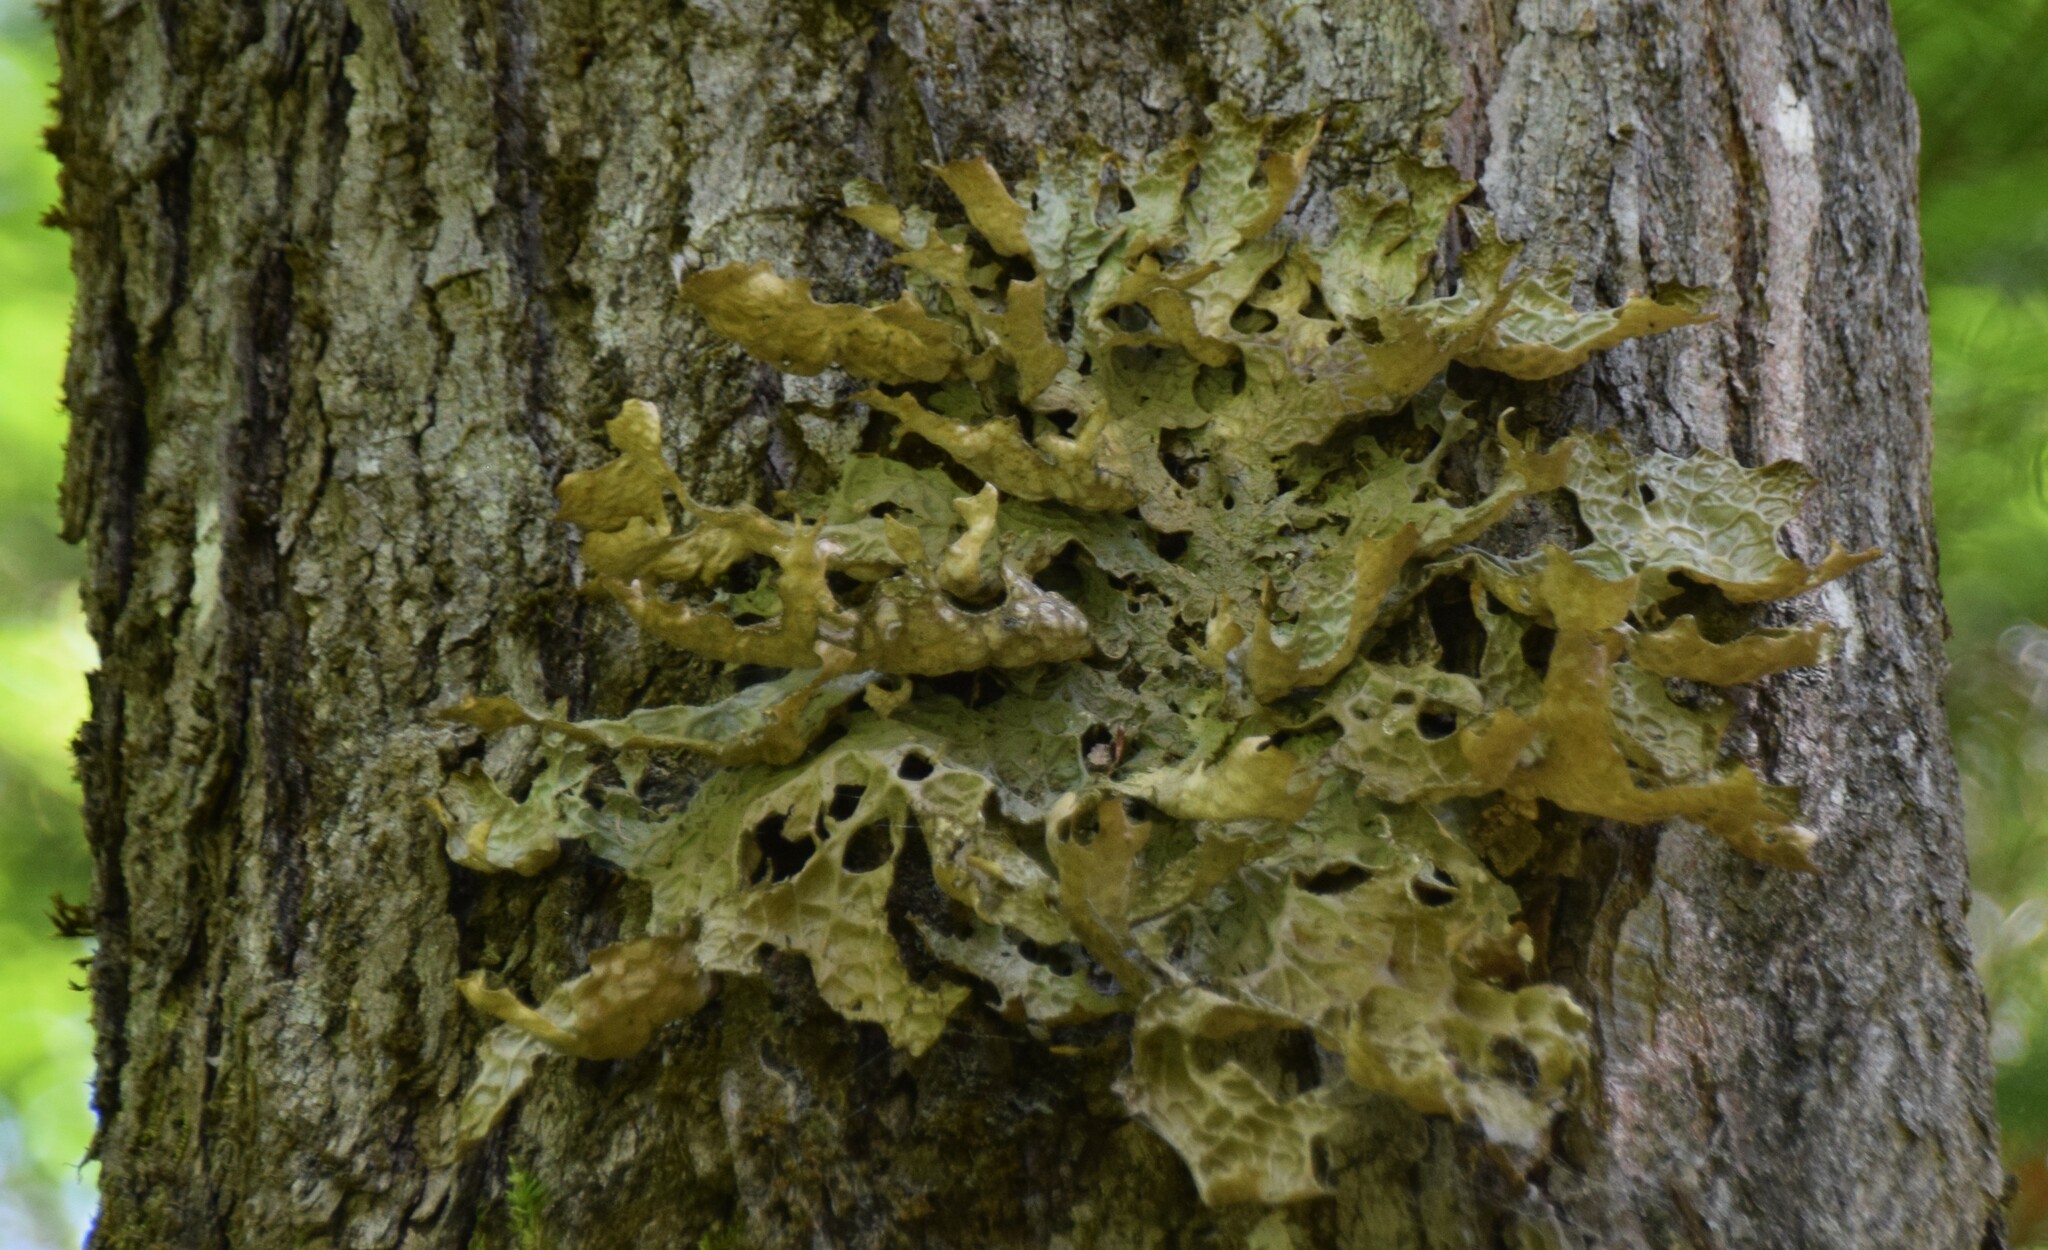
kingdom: Fungi
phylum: Ascomycota
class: Lecanoromycetes
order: Peltigerales
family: Lobariaceae
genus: Lobaria
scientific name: Lobaria pulmonaria
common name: Lungwort
